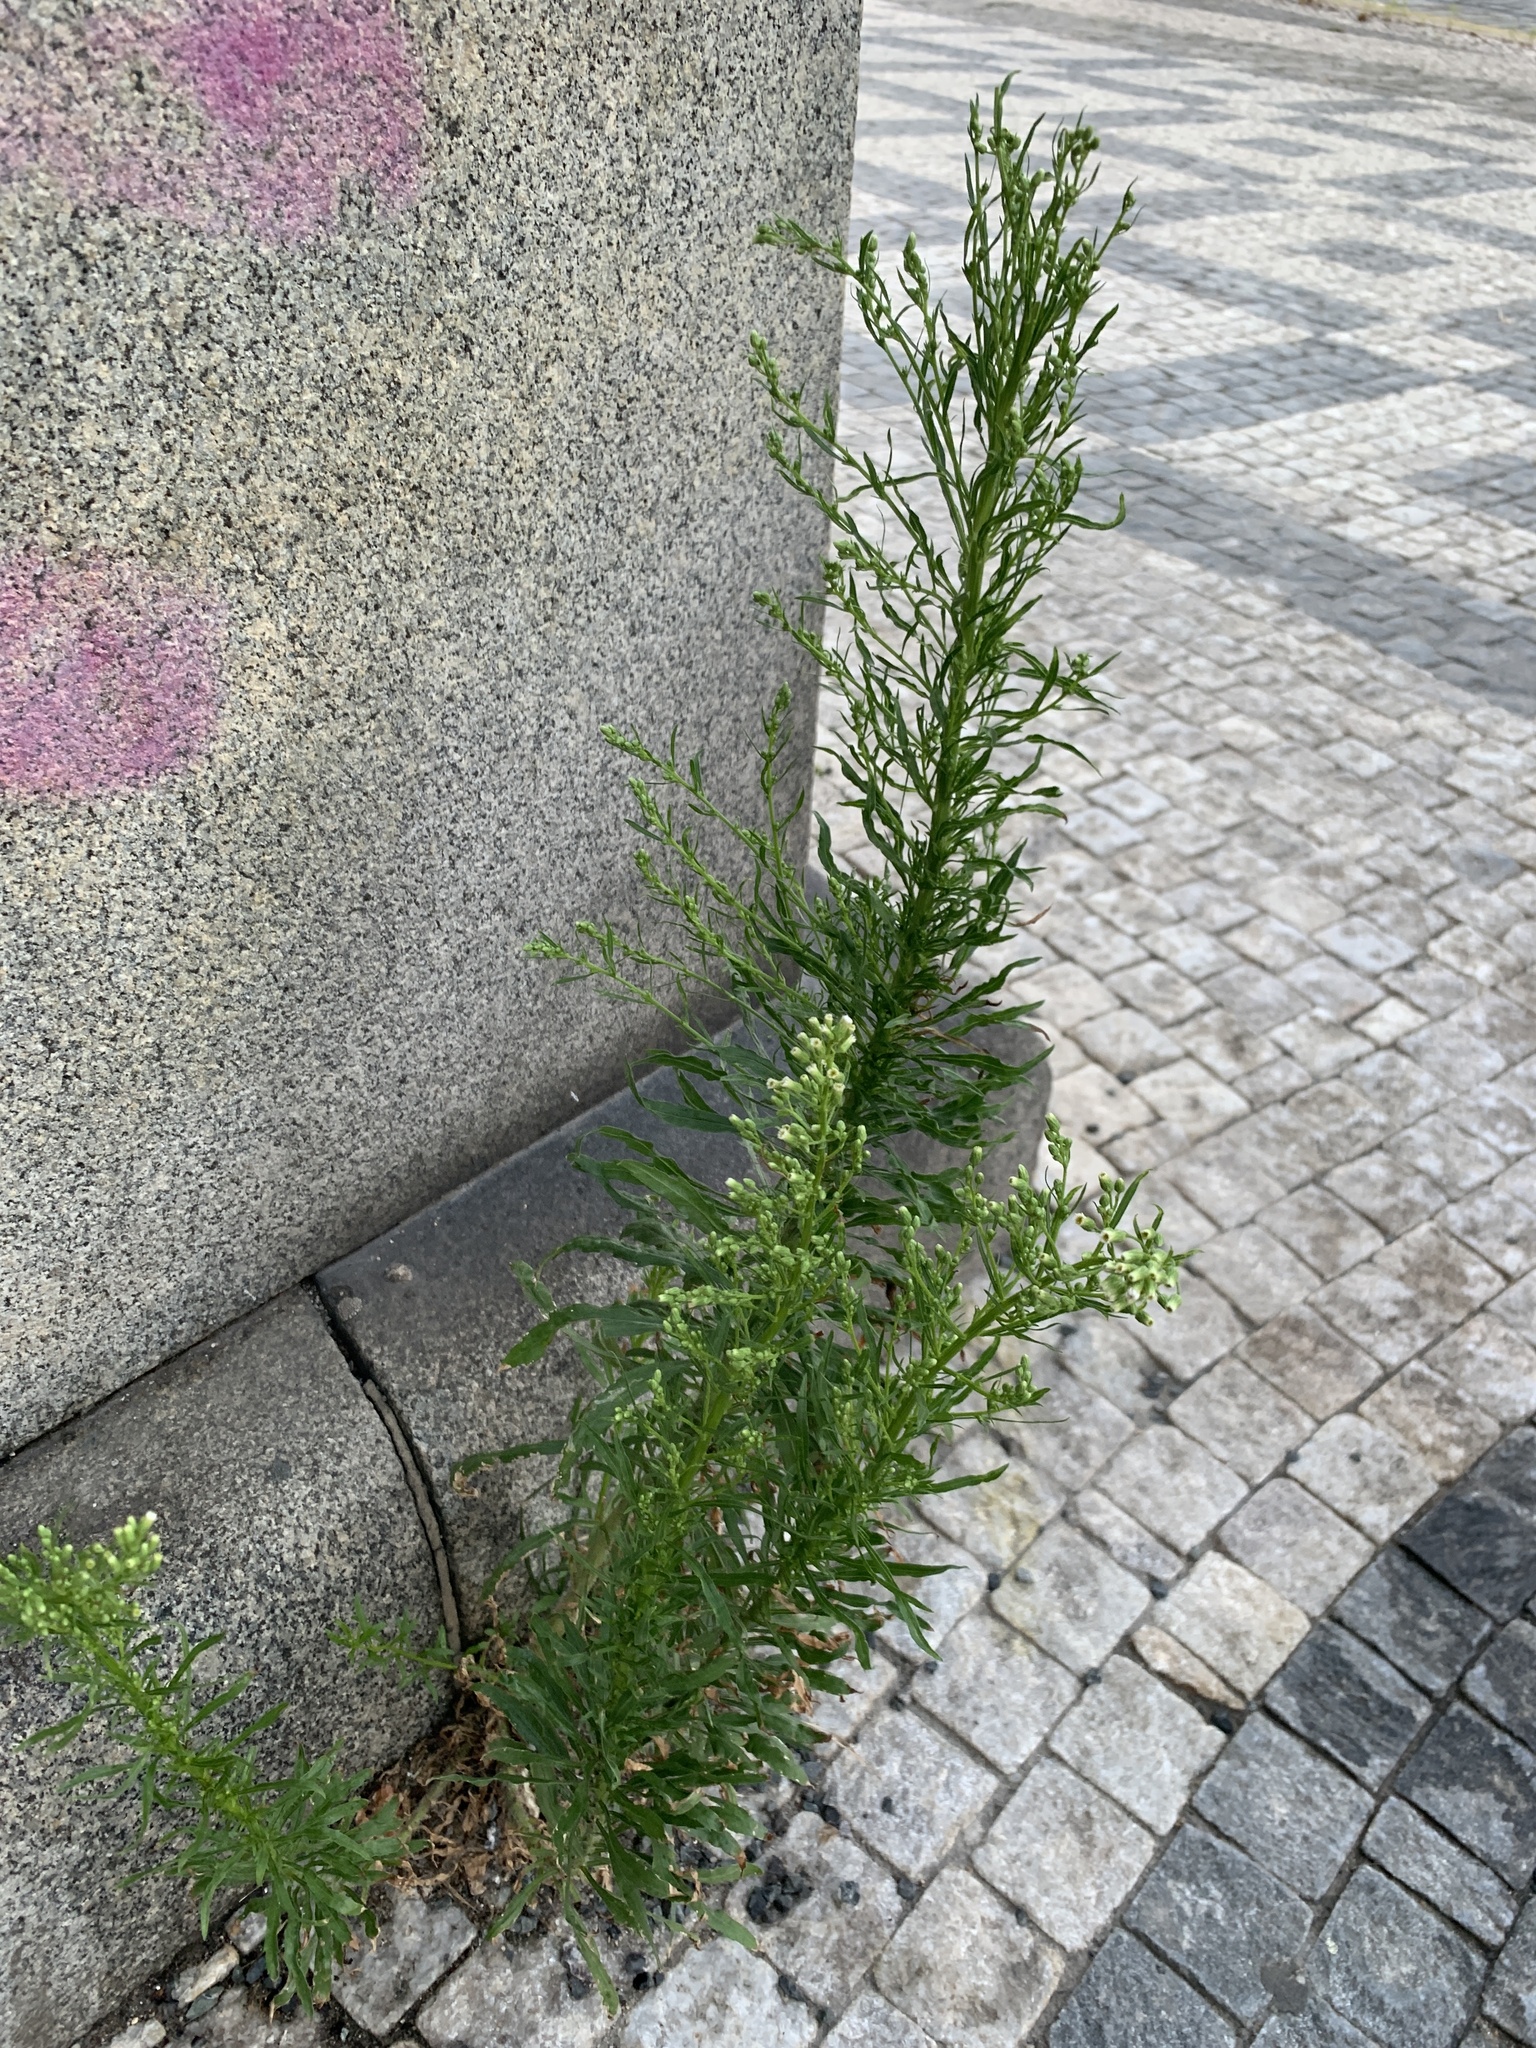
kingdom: Plantae
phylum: Tracheophyta
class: Magnoliopsida
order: Asterales
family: Asteraceae
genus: Erigeron
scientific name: Erigeron canadensis
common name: Canadian fleabane
